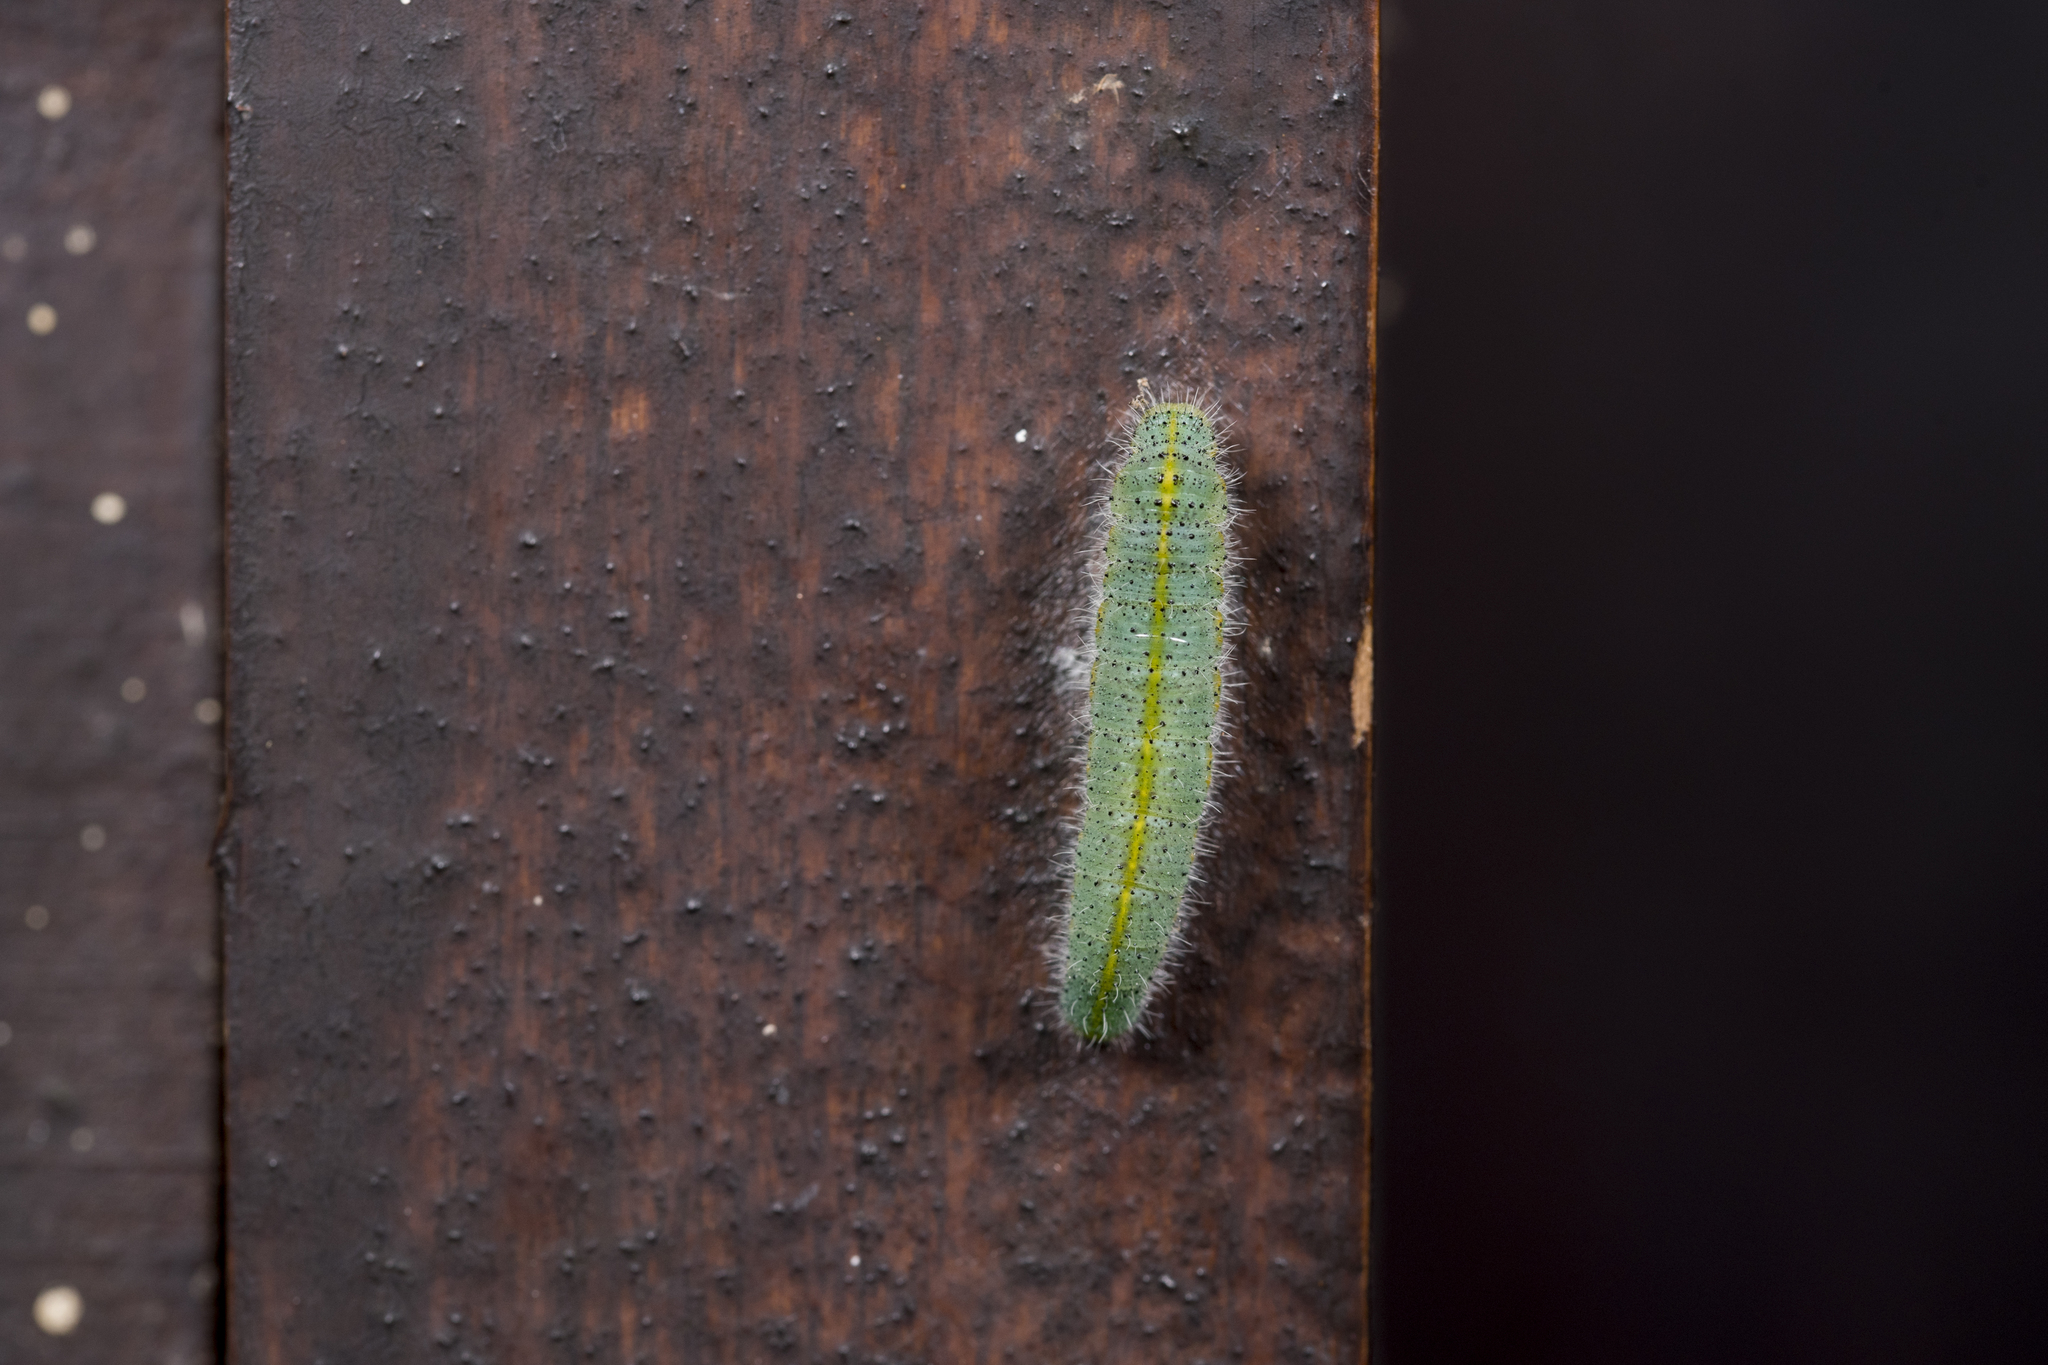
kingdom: Animalia
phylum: Arthropoda
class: Insecta
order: Lepidoptera
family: Pieridae
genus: Pieris
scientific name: Pieris canidia
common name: Indian cabbage white
